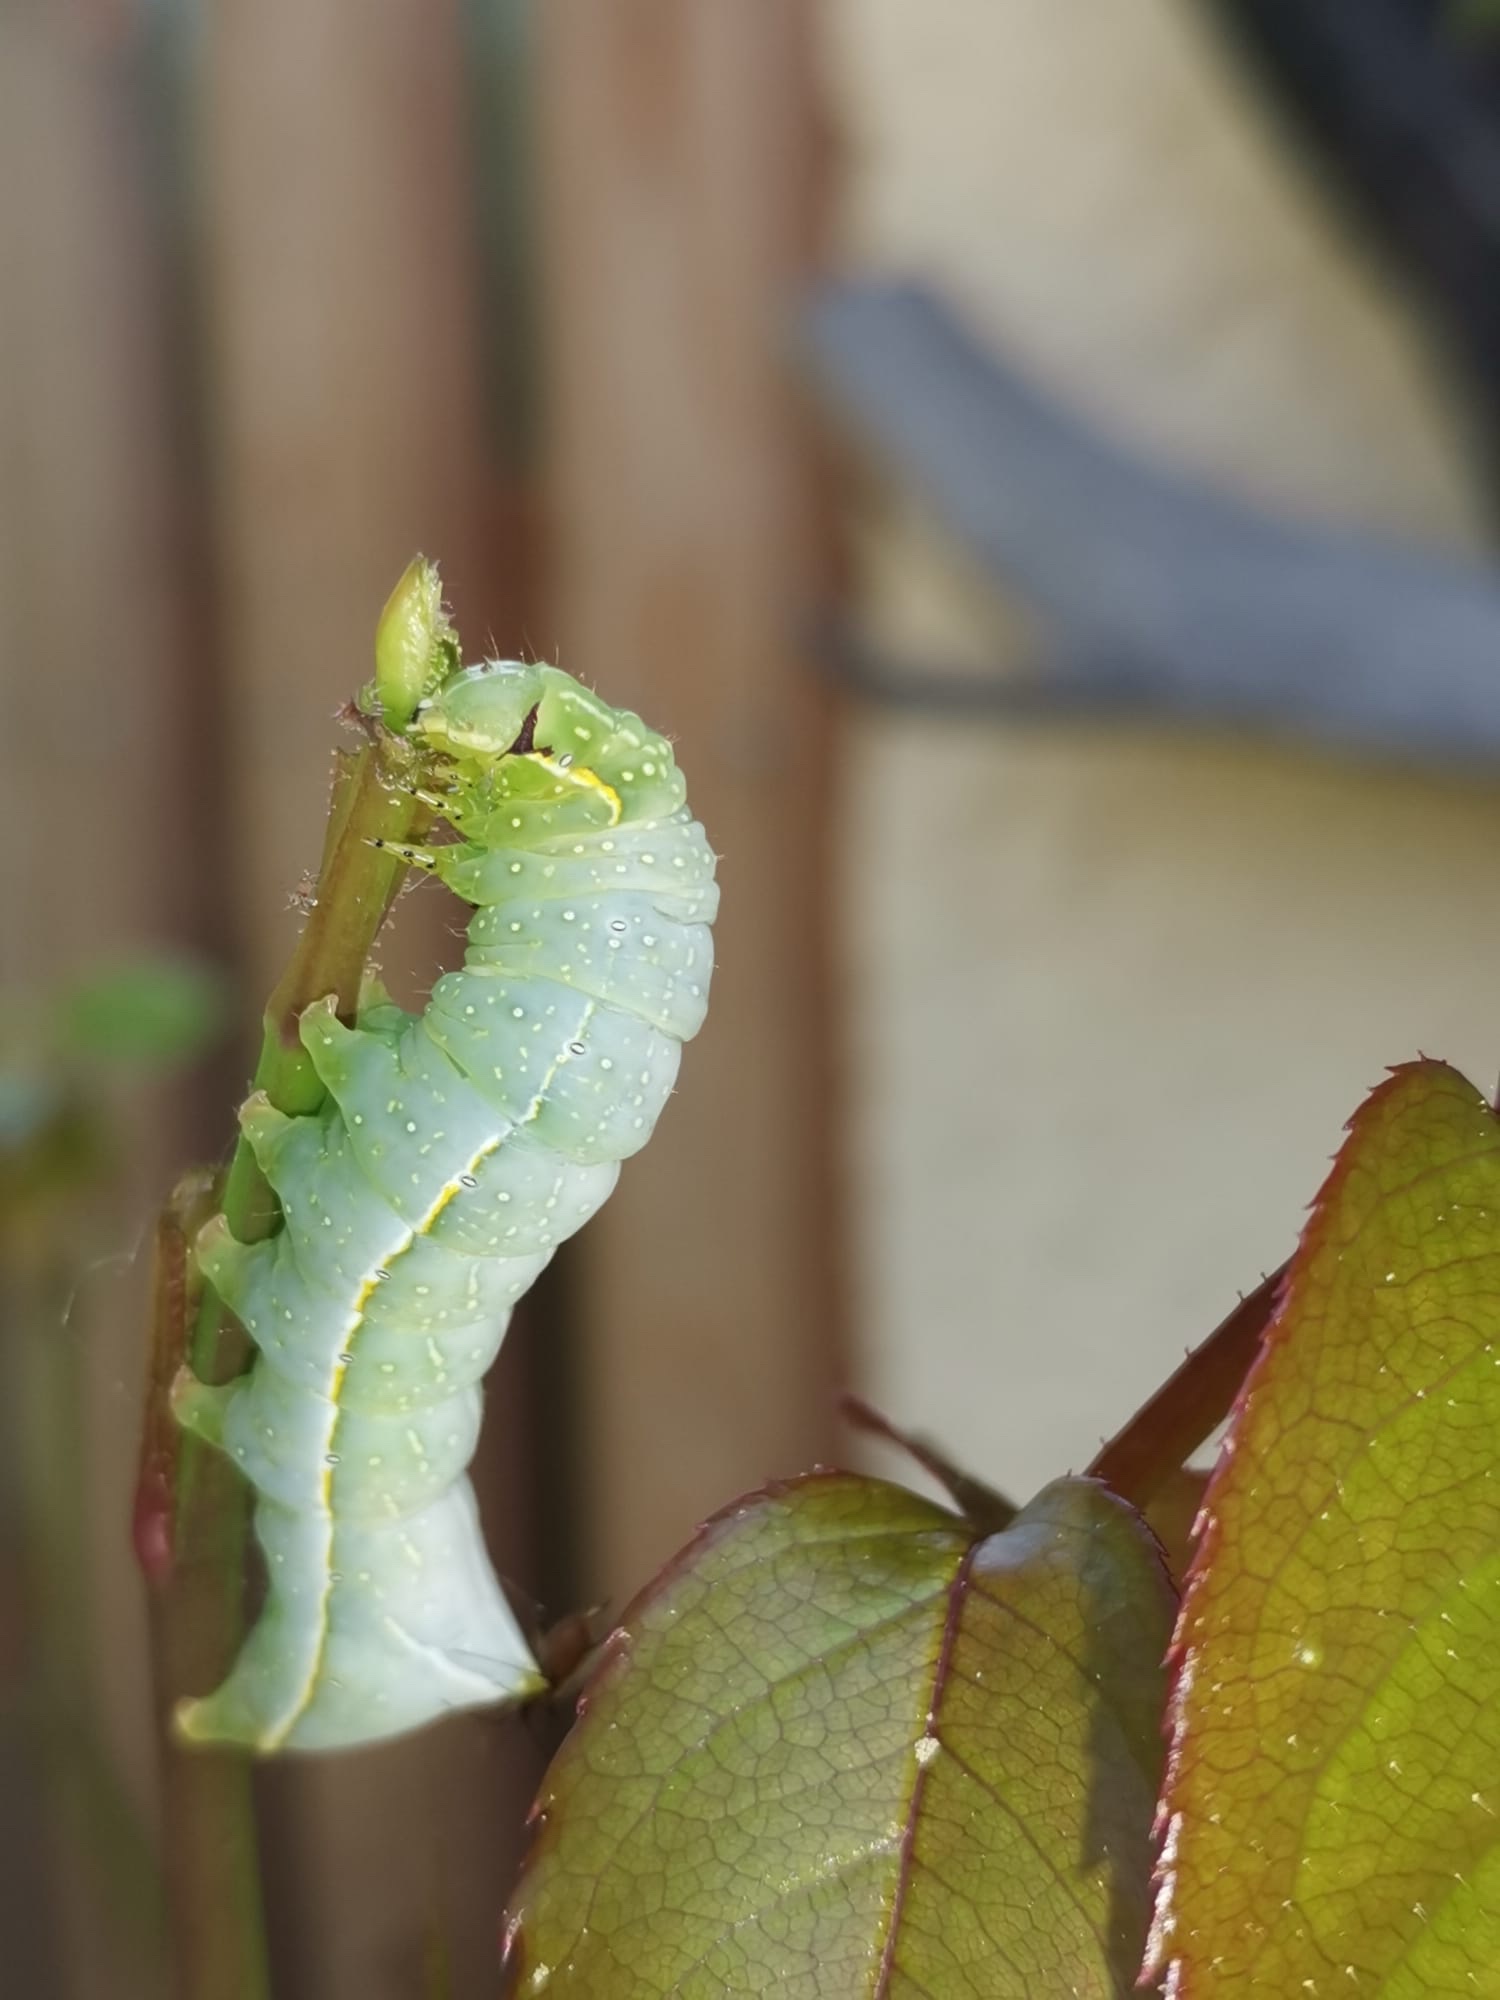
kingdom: Animalia
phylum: Arthropoda
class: Insecta
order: Lepidoptera
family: Noctuidae
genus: Amphipyra
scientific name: Amphipyra pyramidea
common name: Copper underwing
